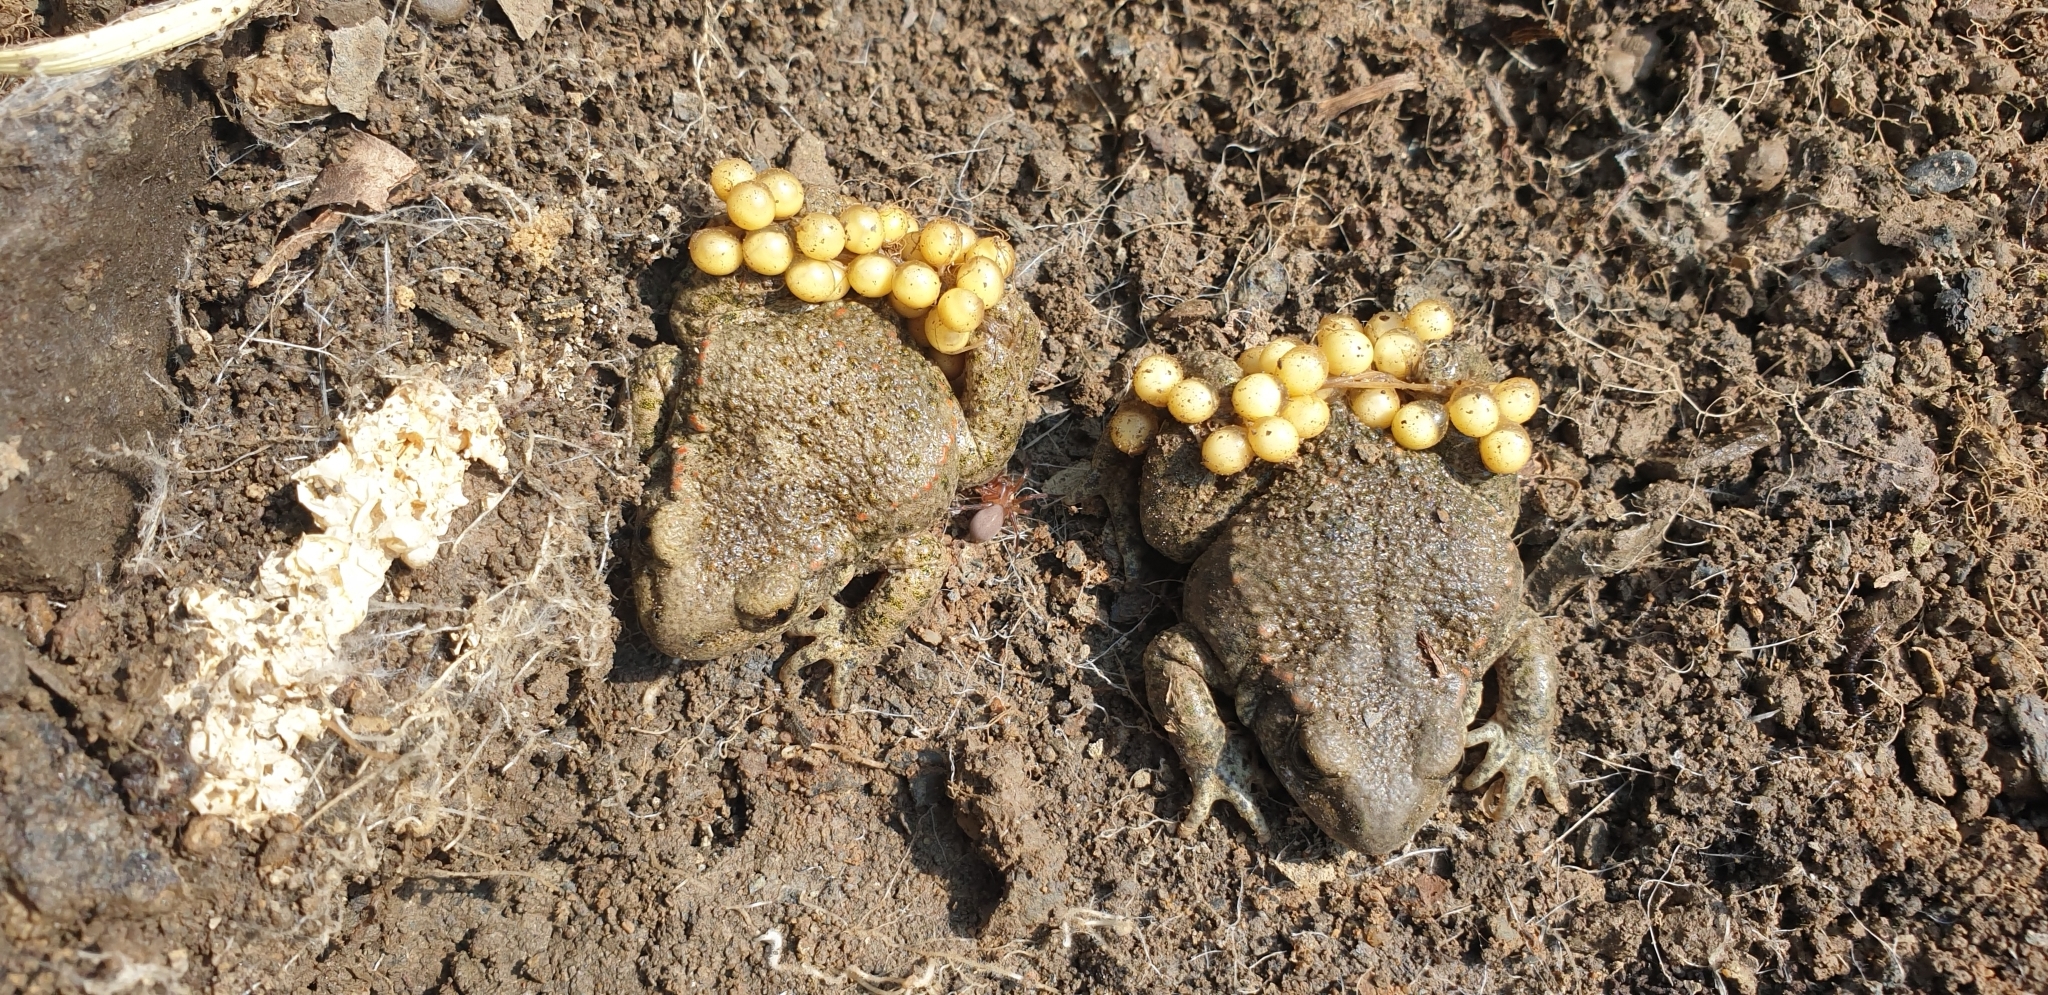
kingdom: Animalia
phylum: Chordata
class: Amphibia
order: Anura
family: Alytidae
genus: Alytes
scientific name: Alytes obstetricans
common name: Midwife toad
